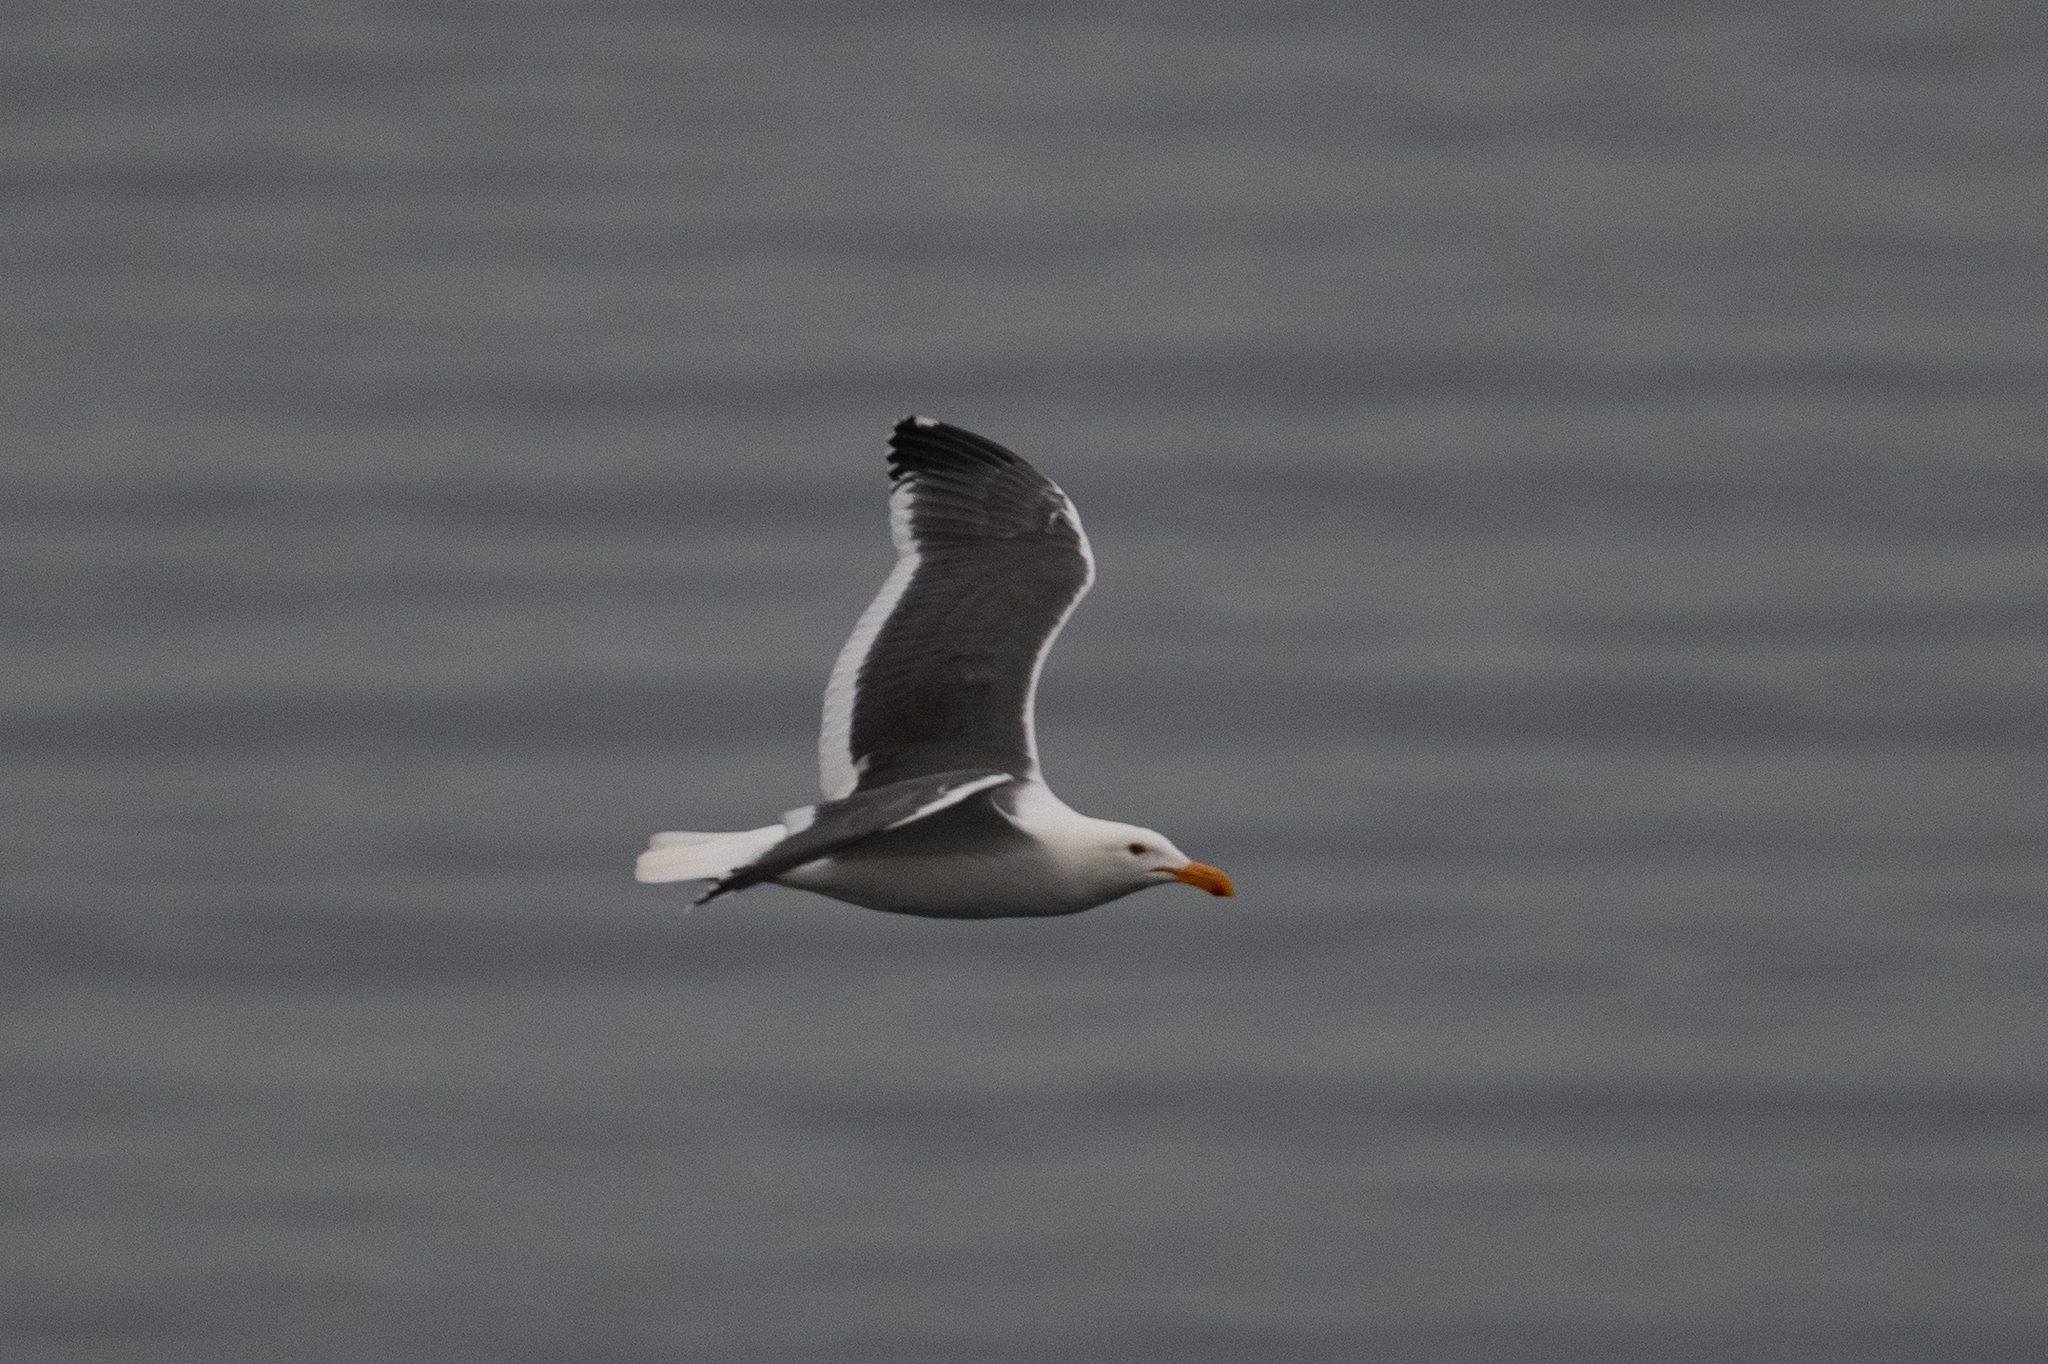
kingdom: Animalia
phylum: Chordata
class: Aves
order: Charadriiformes
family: Laridae
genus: Larus
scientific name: Larus occidentalis
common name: Western gull
